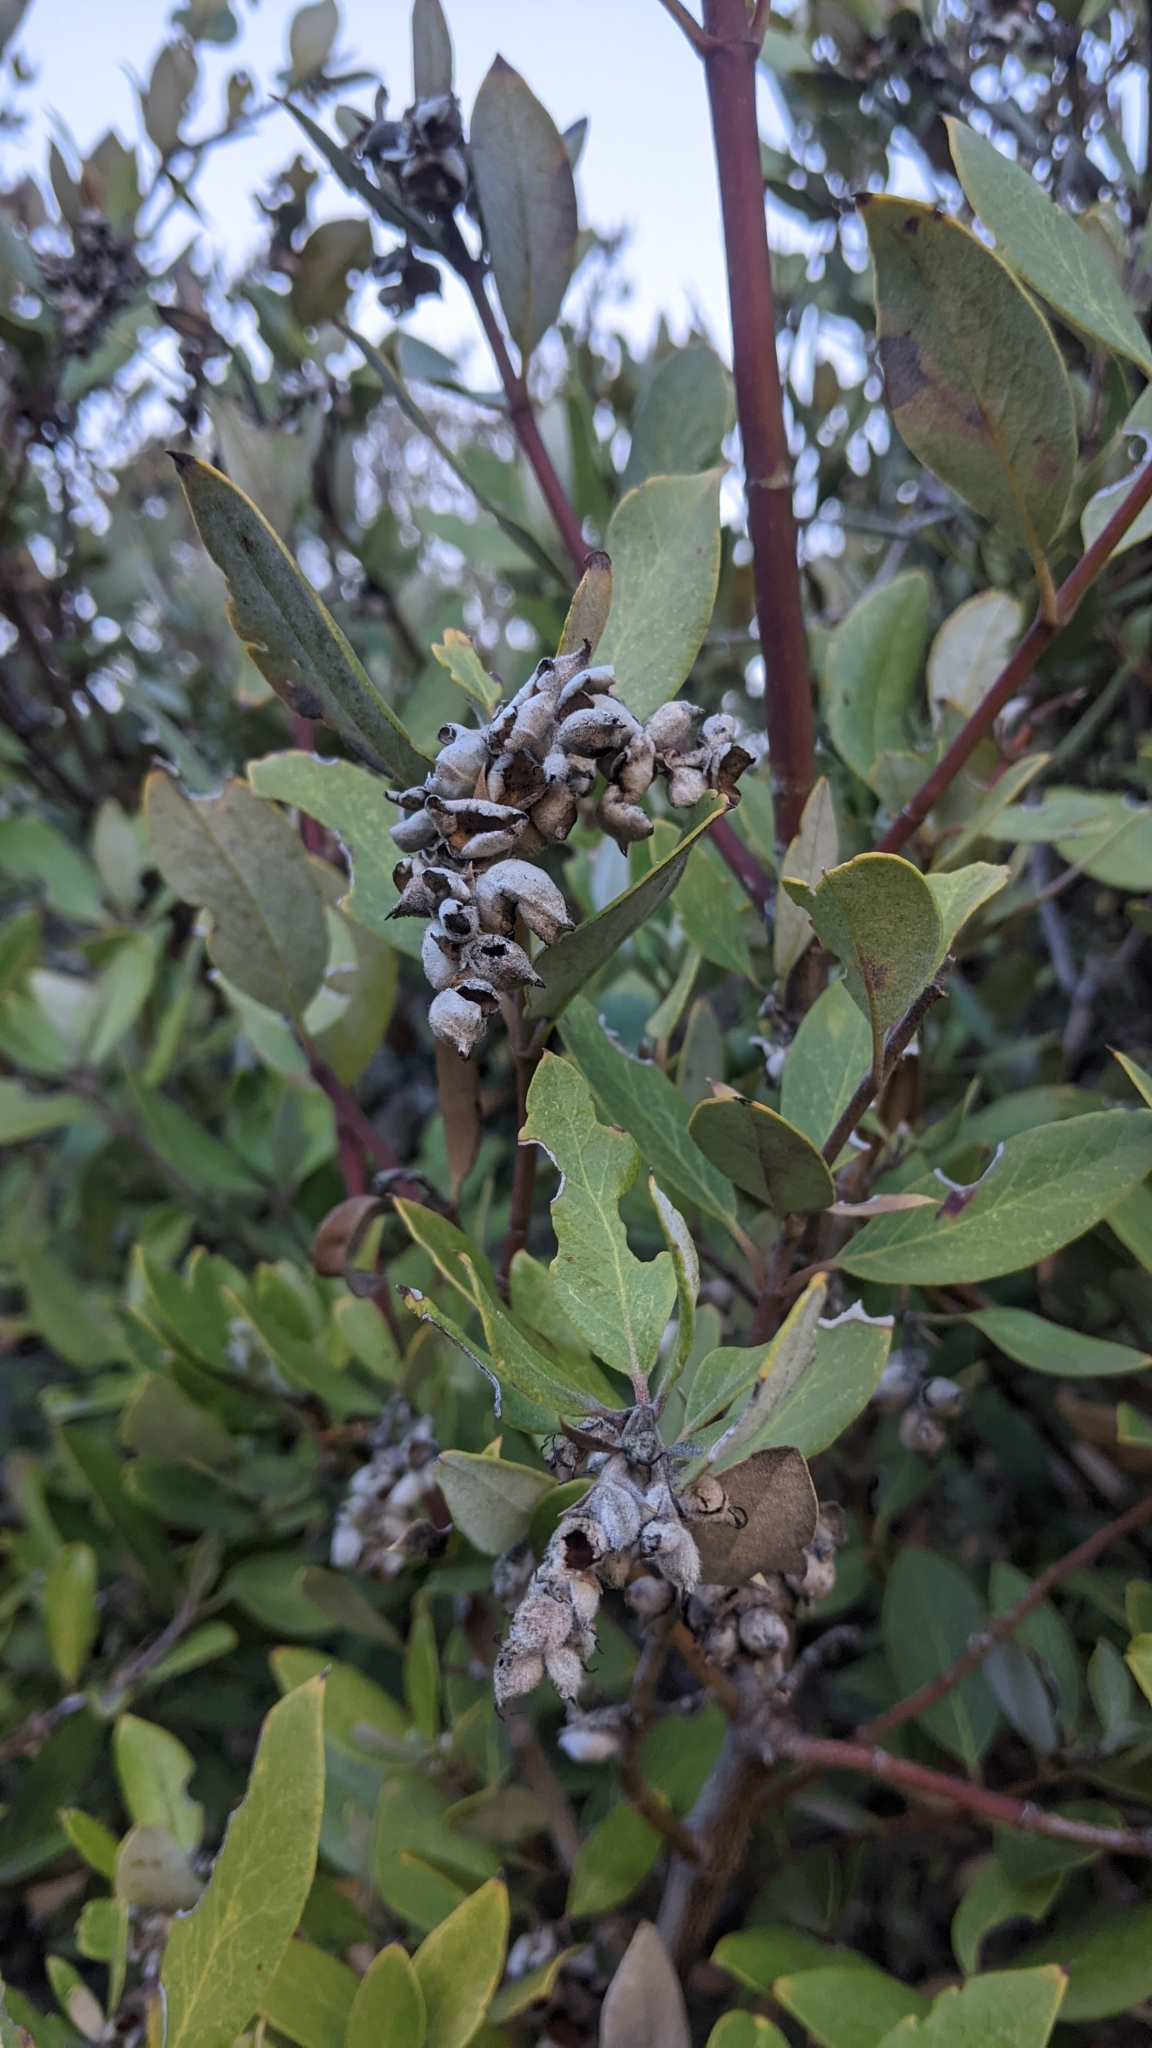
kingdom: Plantae
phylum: Tracheophyta
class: Magnoliopsida
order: Garryales
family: Garryaceae
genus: Garrya
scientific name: Garrya veatchii
